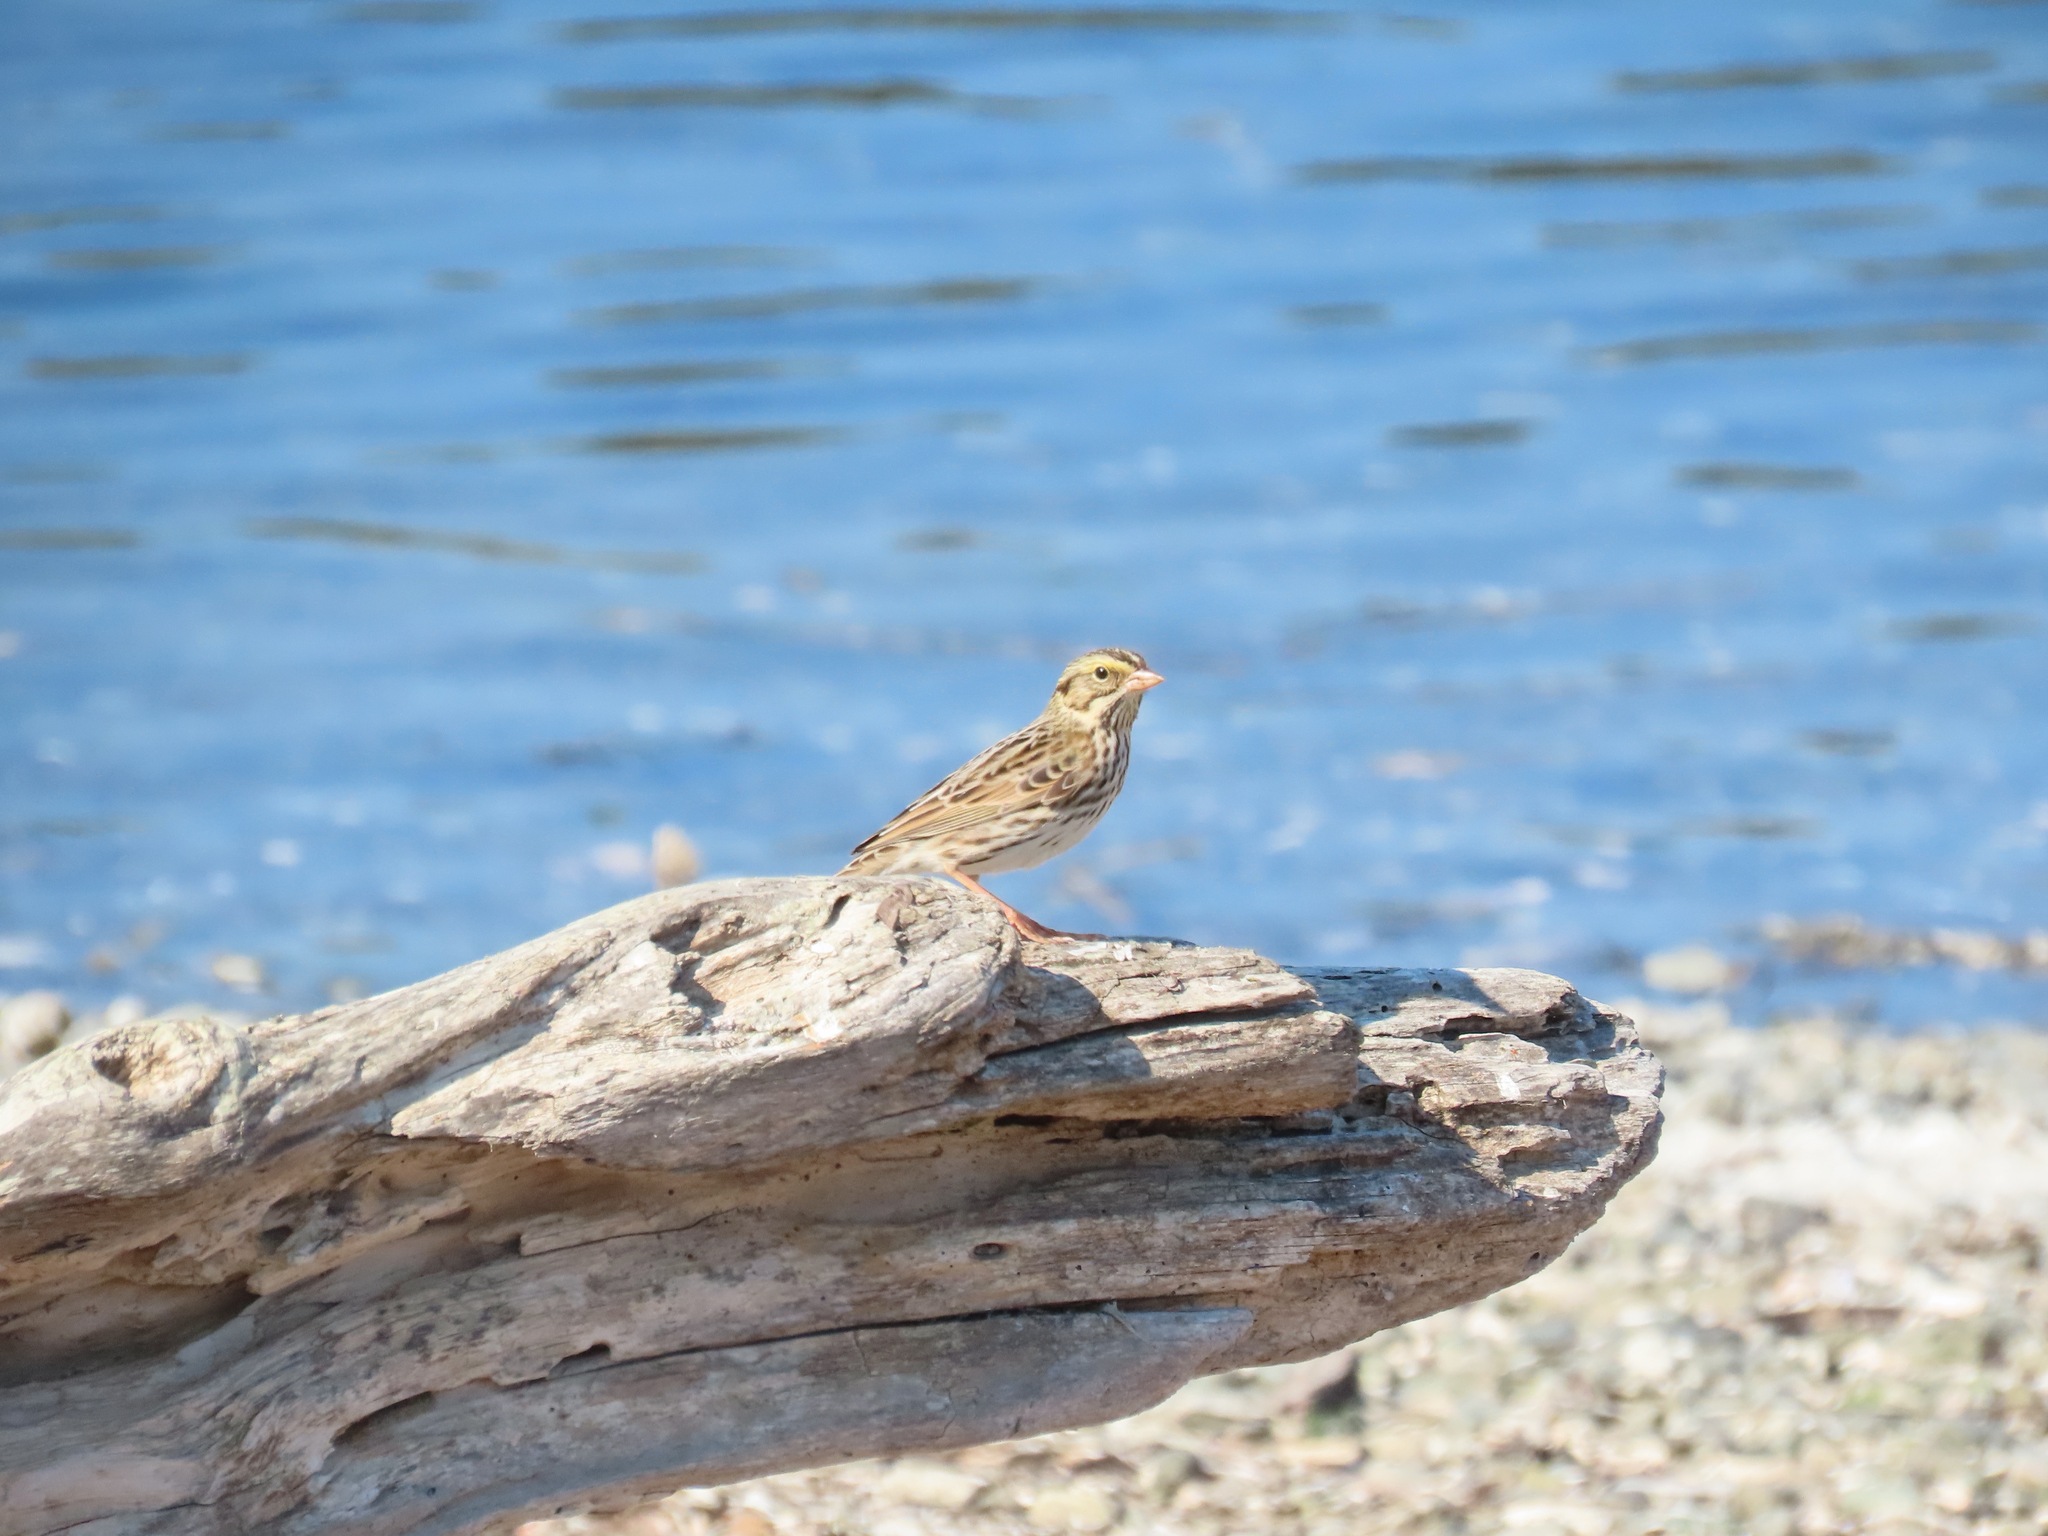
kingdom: Animalia
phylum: Chordata
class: Aves
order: Passeriformes
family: Passerellidae
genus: Passerculus
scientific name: Passerculus sandwichensis
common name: Savannah sparrow
